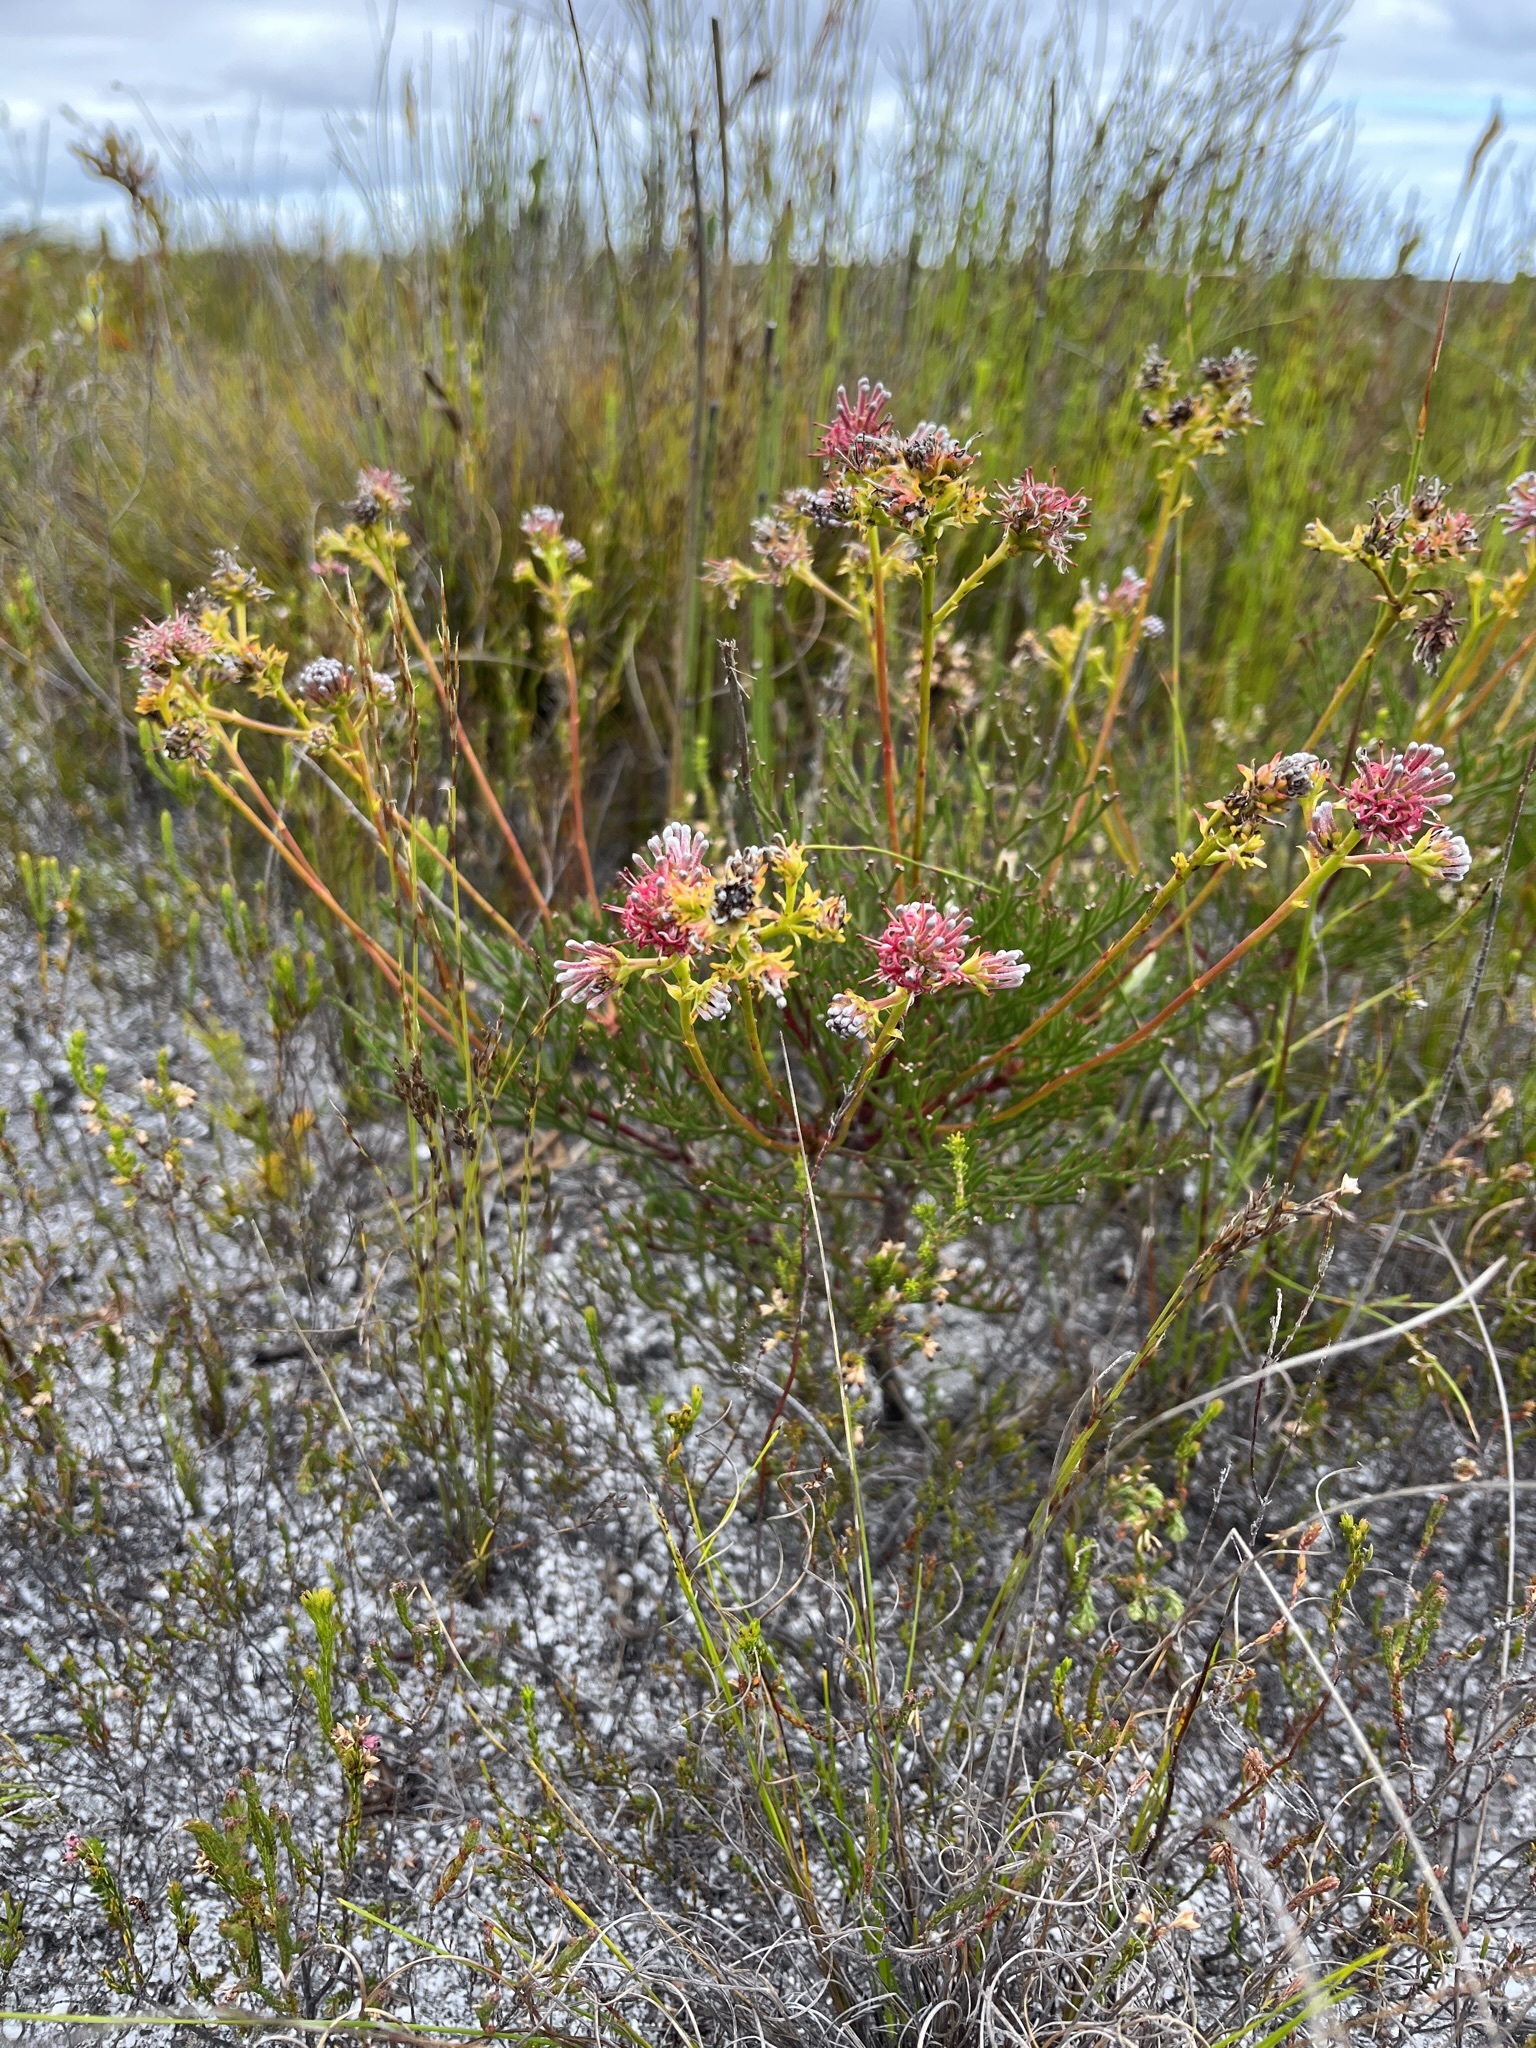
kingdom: Plantae
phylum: Tracheophyta
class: Magnoliopsida
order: Proteales
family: Proteaceae
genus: Serruria
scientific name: Serruria elongata
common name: Long-stalk spiderhead
